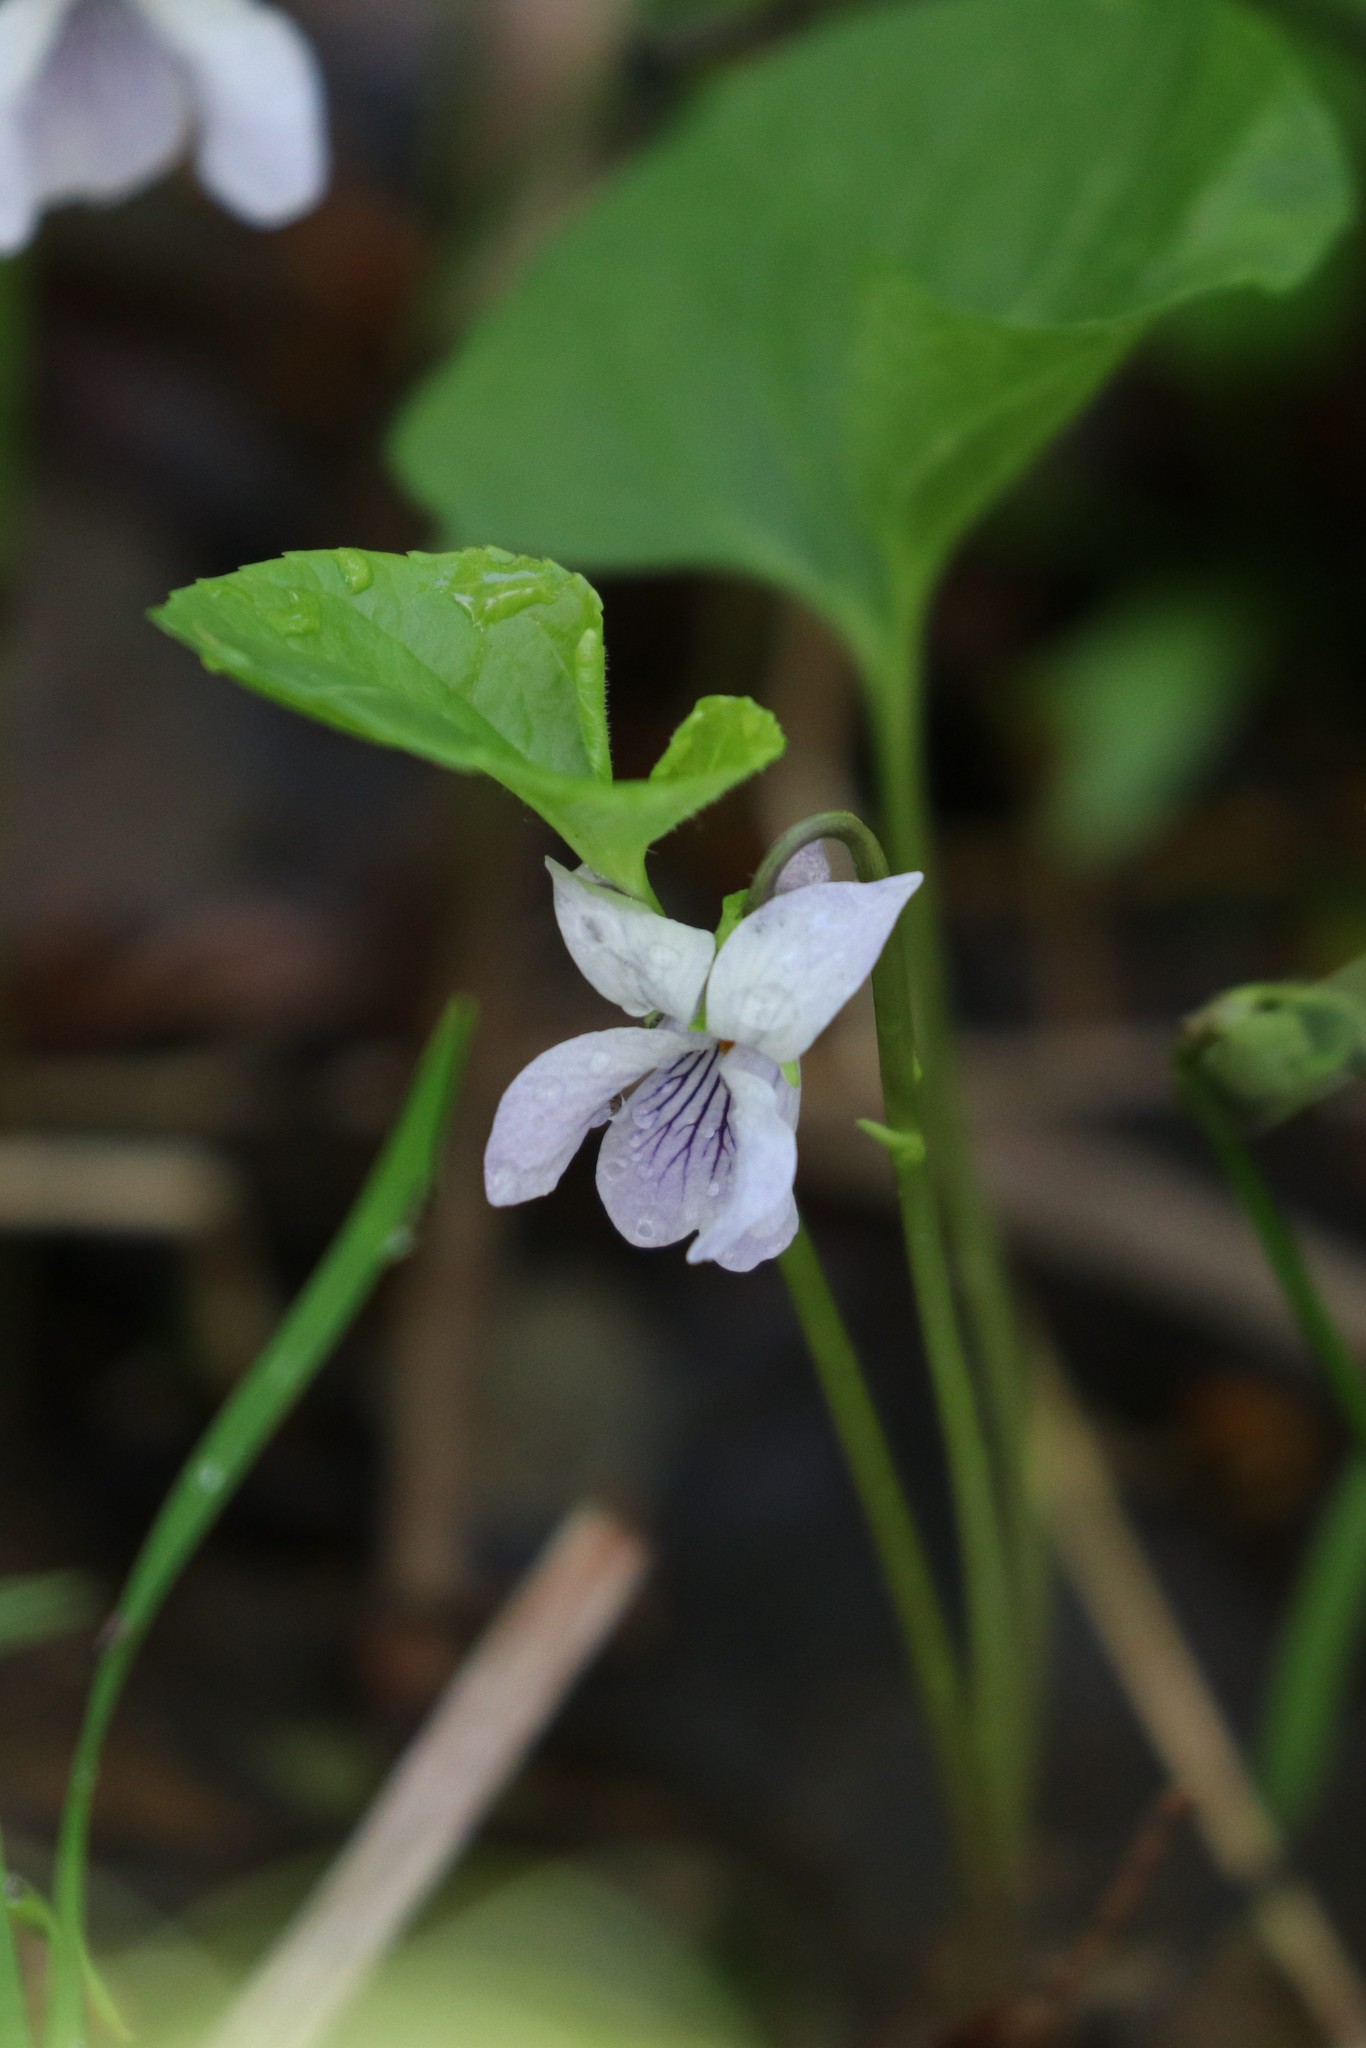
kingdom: Plantae
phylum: Tracheophyta
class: Magnoliopsida
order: Malpighiales
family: Violaceae
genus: Viola
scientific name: Viola epipsila
